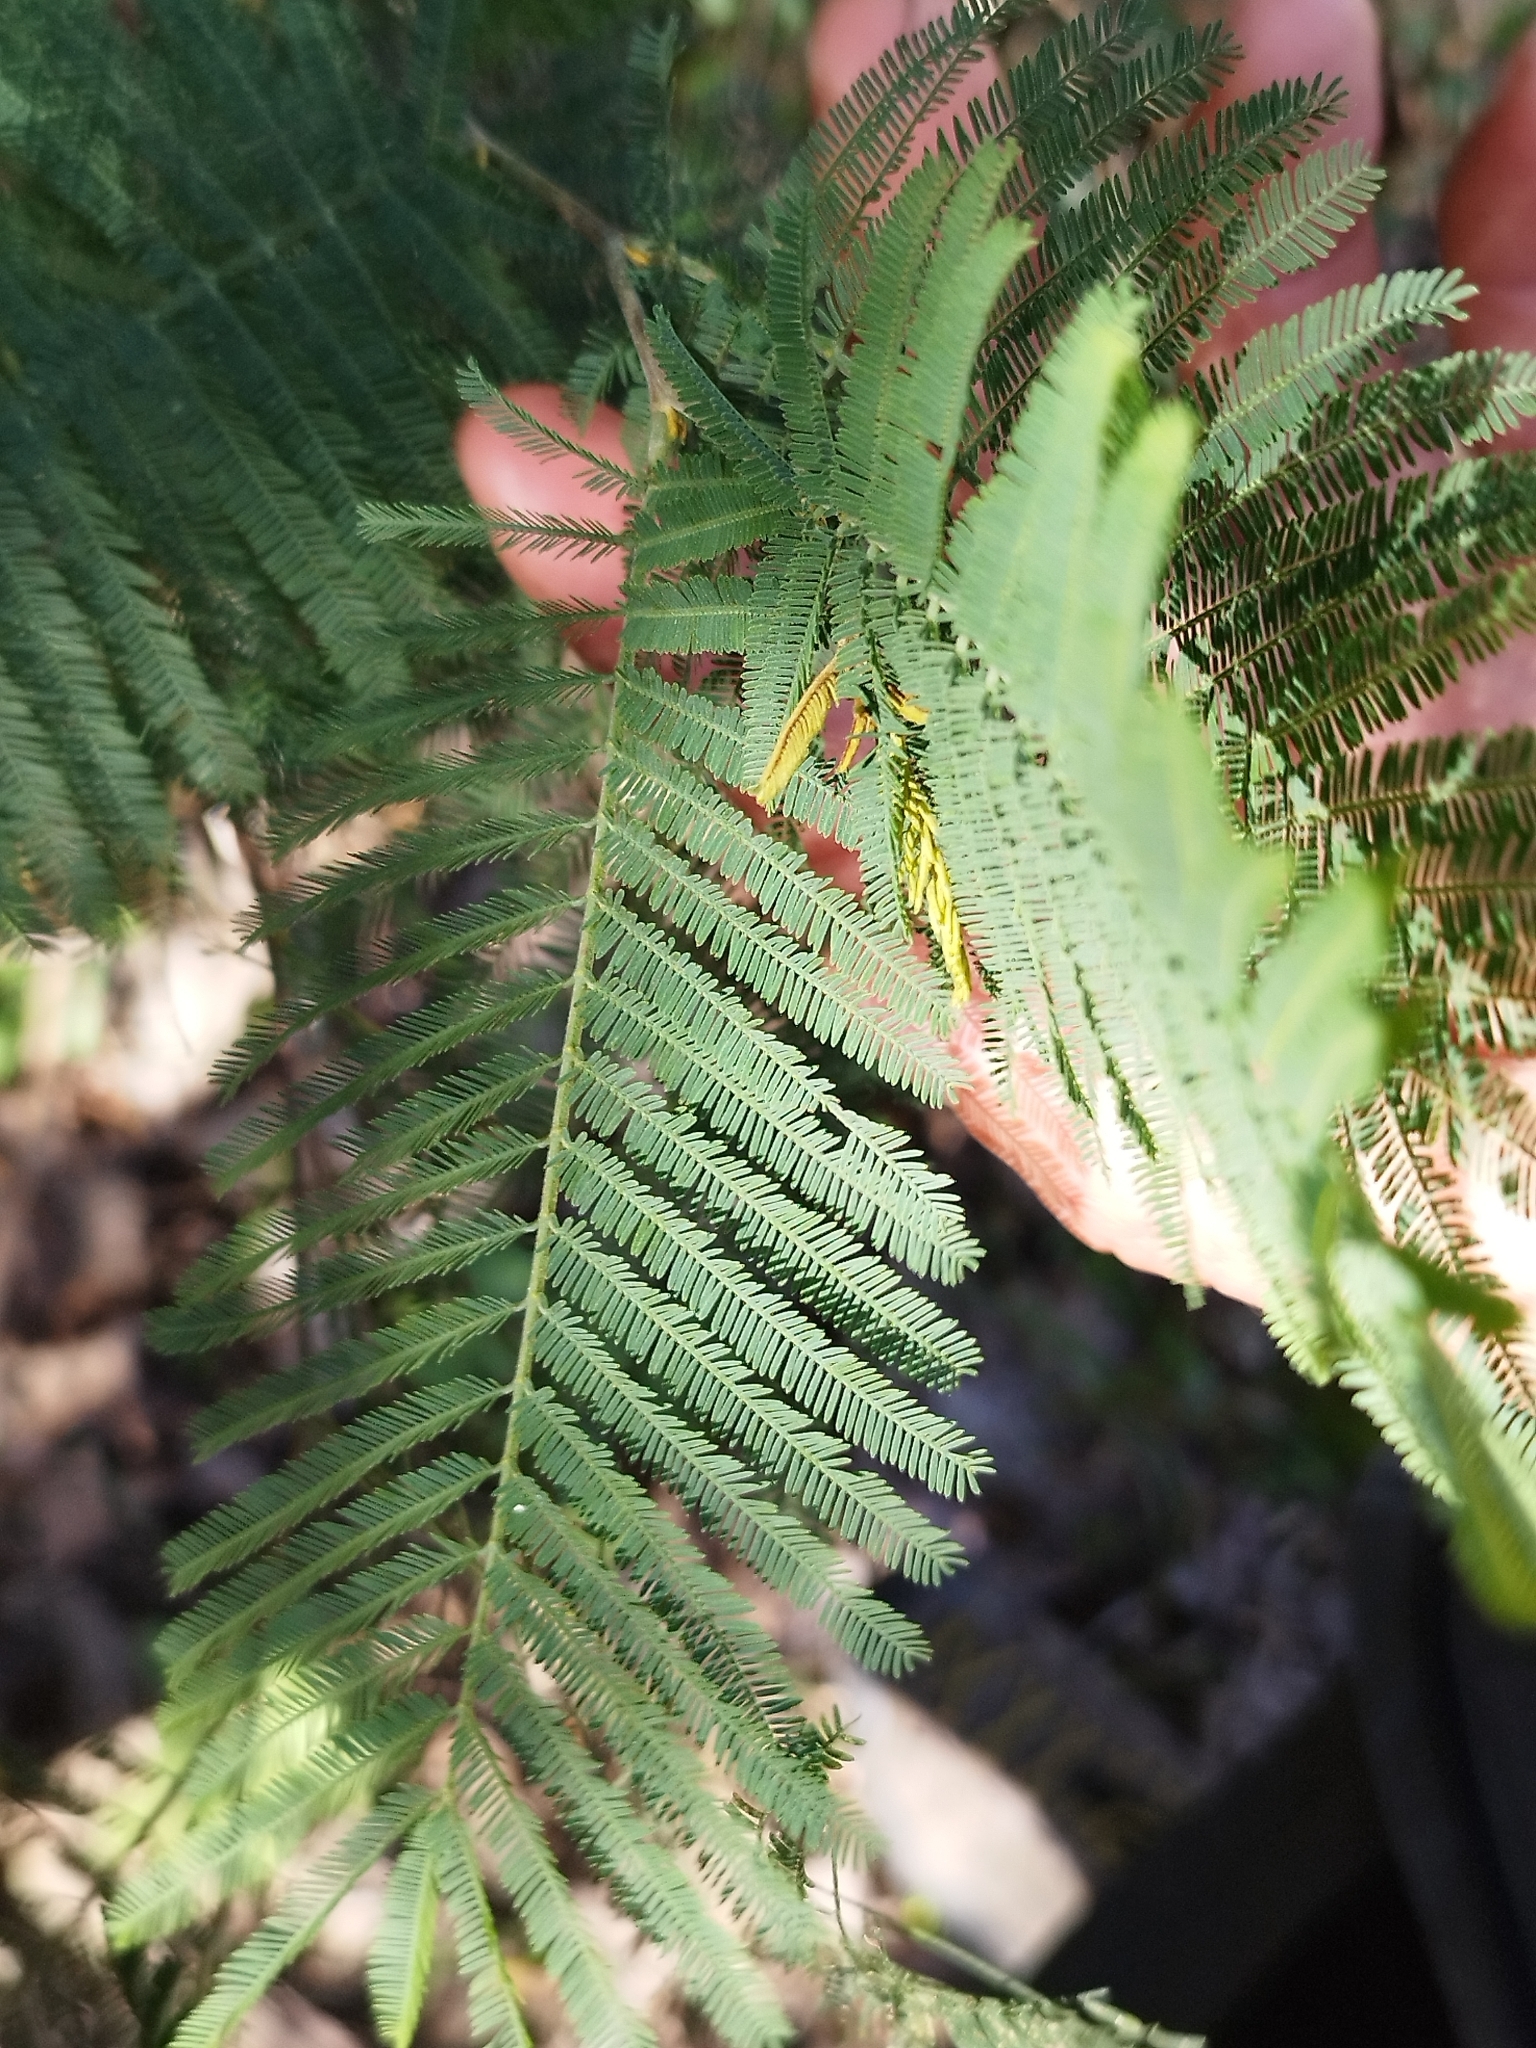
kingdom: Plantae
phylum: Tracheophyta
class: Magnoliopsida
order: Fabales
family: Fabaceae
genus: Anadenanthera
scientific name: Anadenanthera colubrina
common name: Curupay
